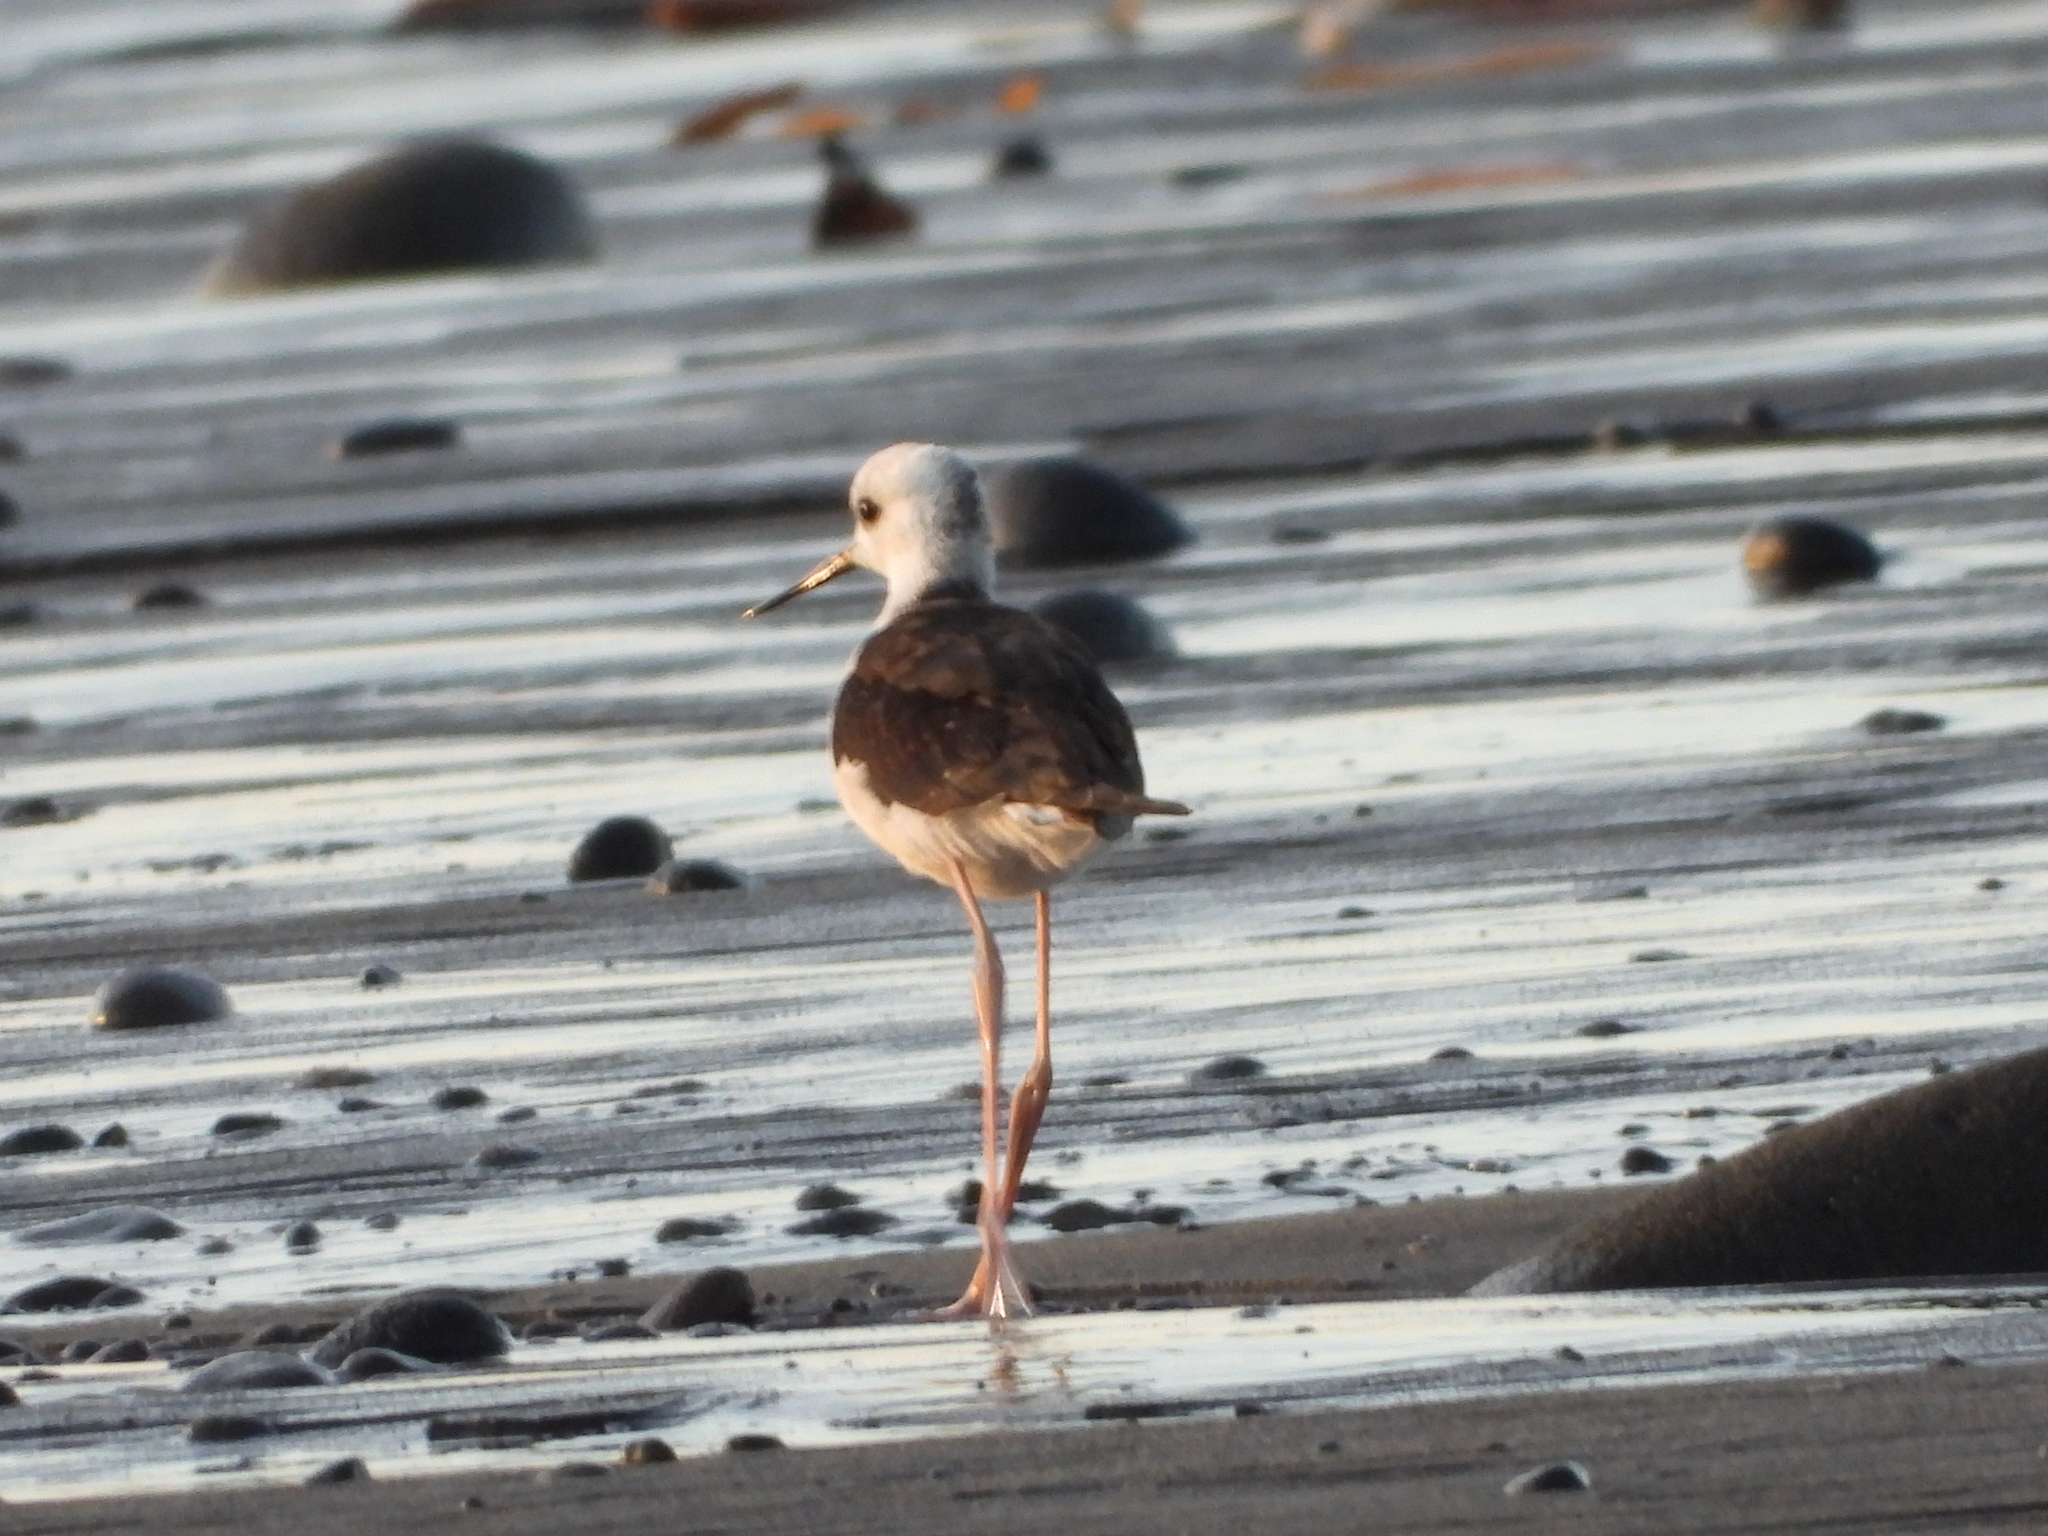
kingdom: Animalia
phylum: Chordata
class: Aves
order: Charadriiformes
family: Recurvirostridae
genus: Himantopus
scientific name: Himantopus leucocephalus
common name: White-headed stilt
